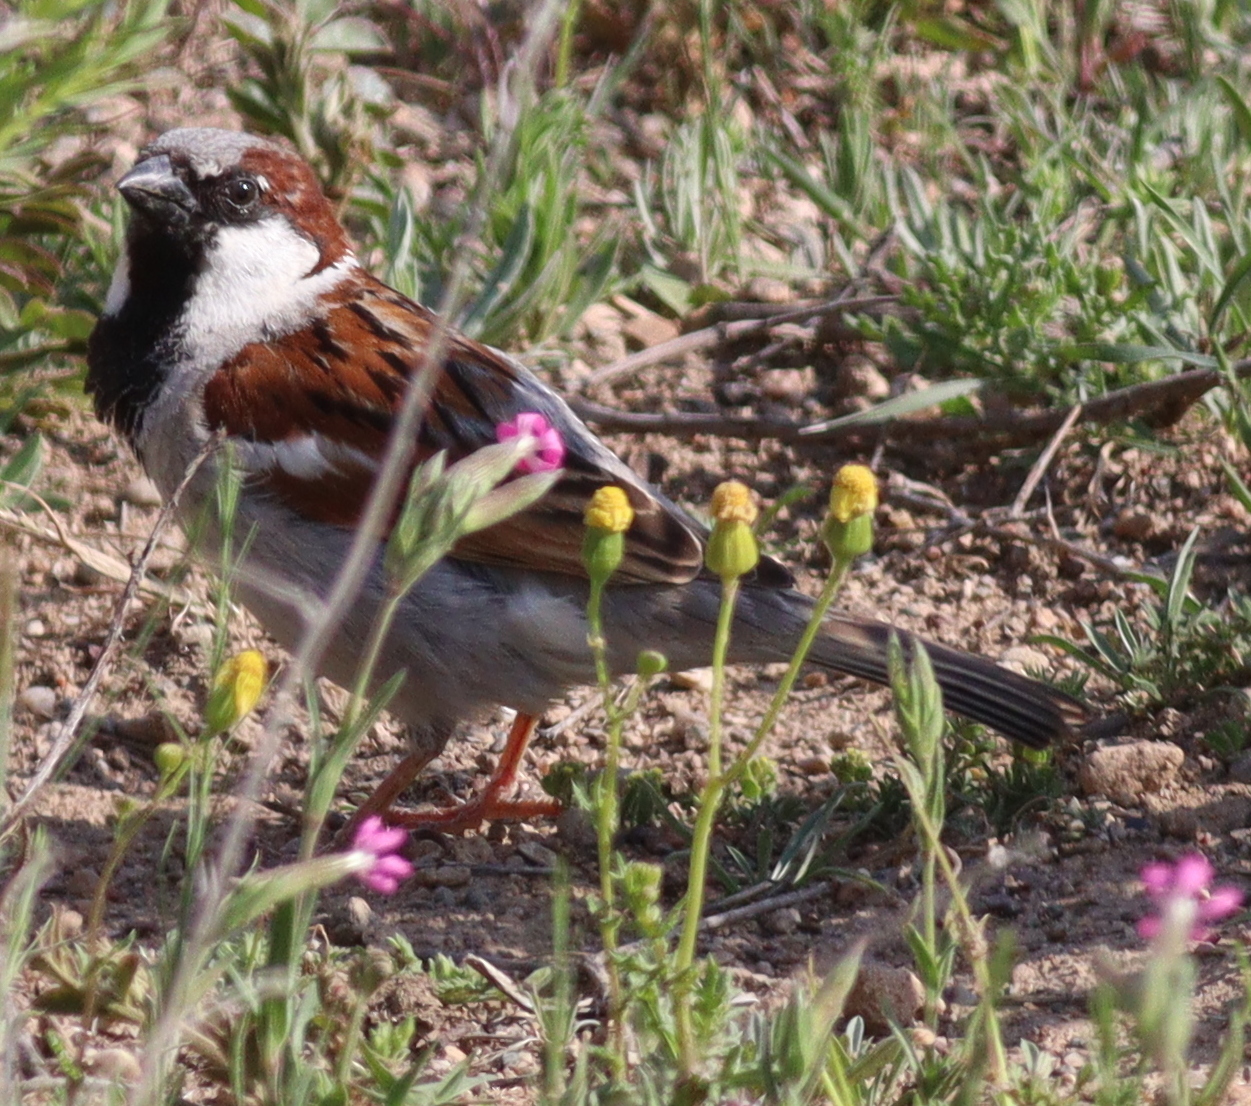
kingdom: Animalia
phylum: Chordata
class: Aves
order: Passeriformes
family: Passeridae
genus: Passer
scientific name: Passer domesticus
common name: House sparrow
